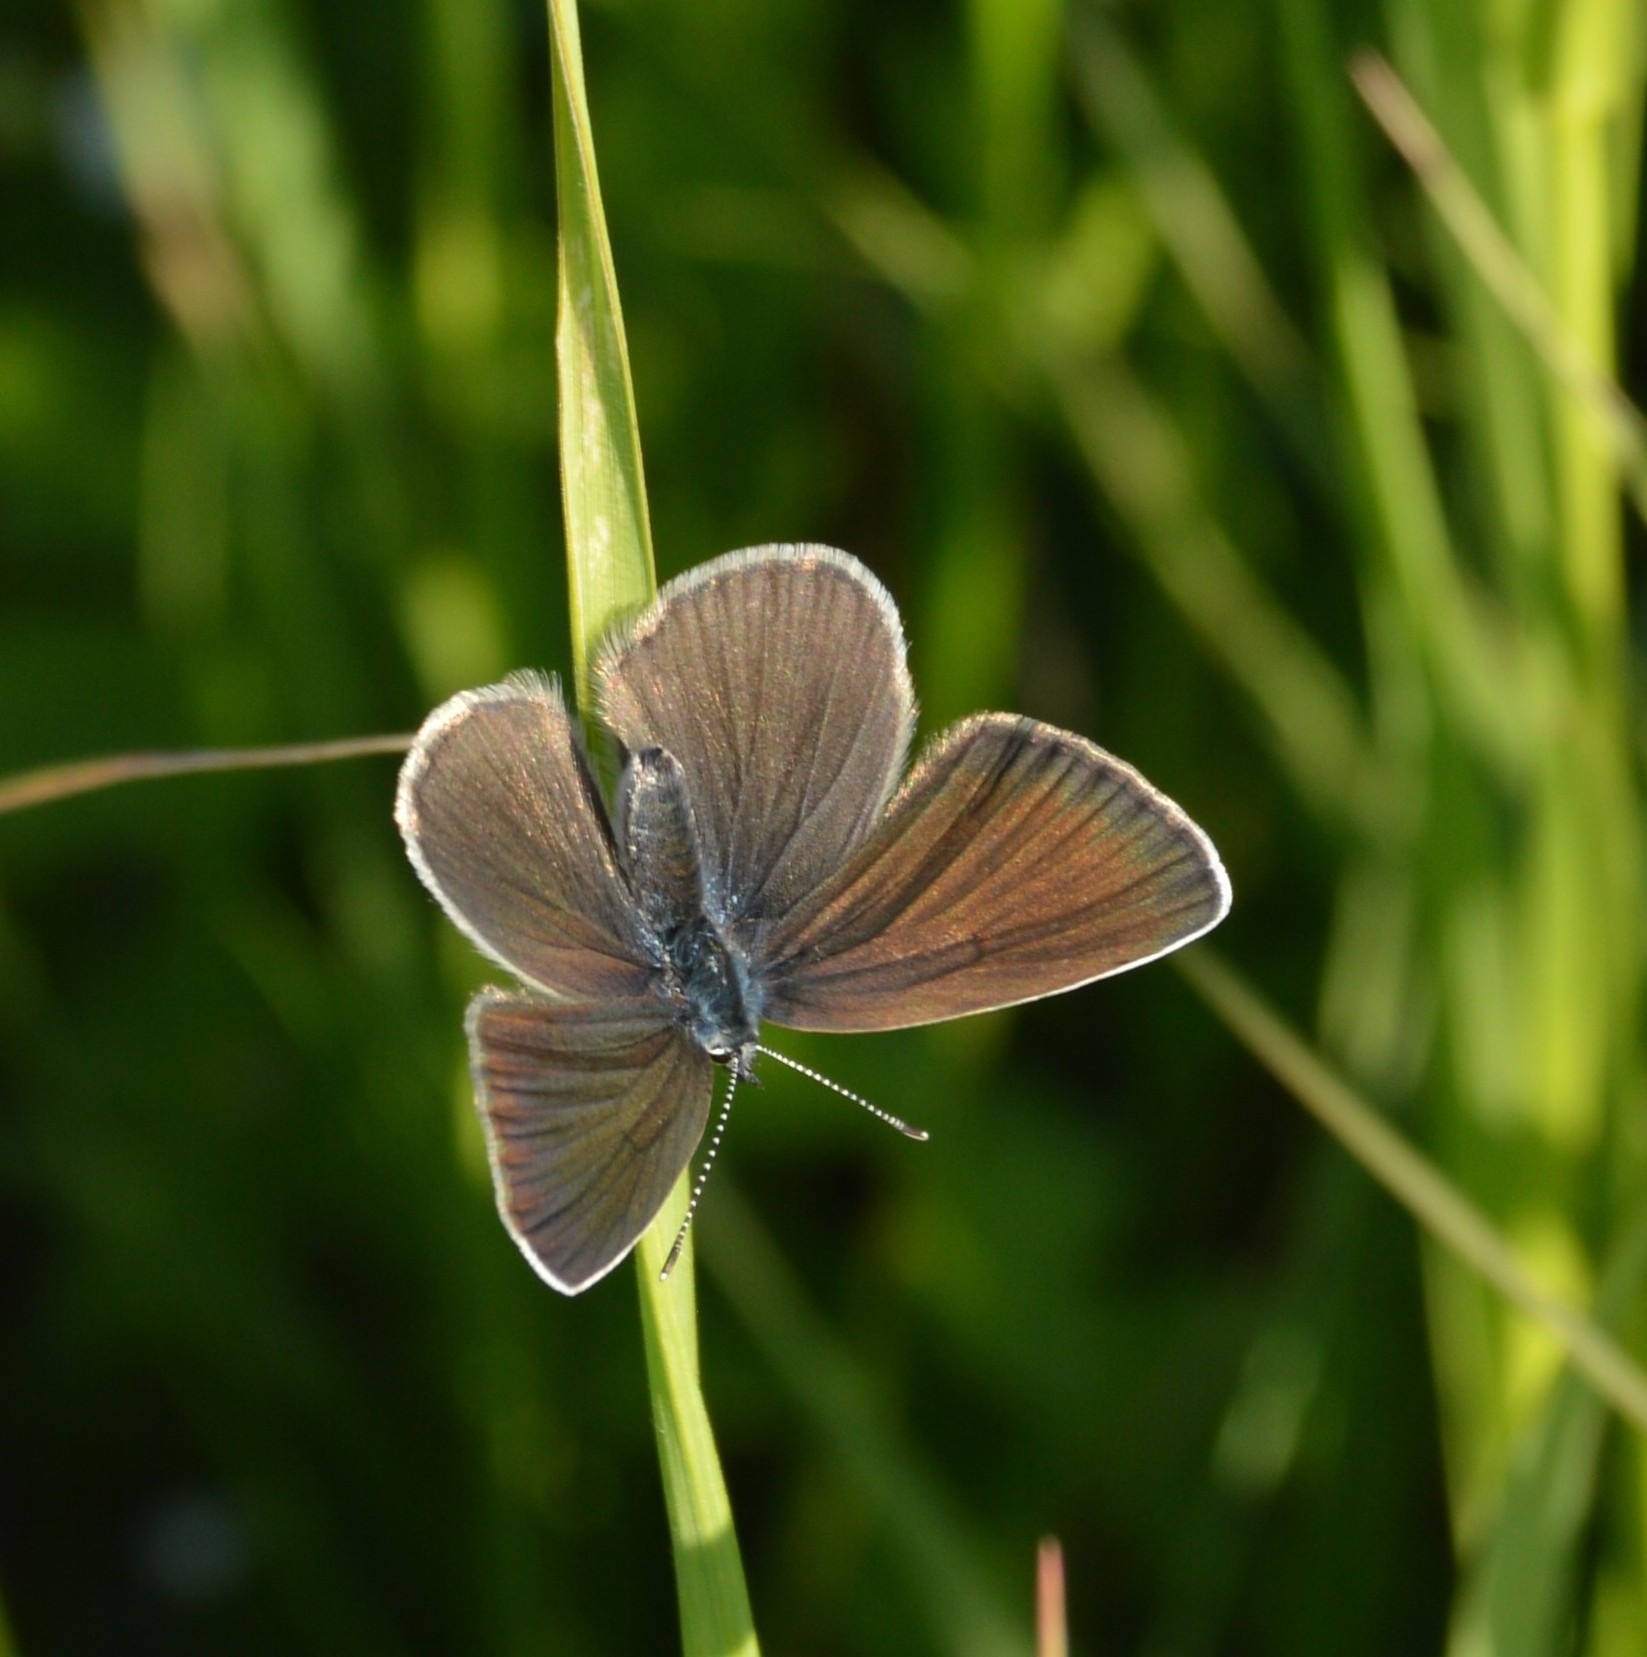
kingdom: Animalia
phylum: Arthropoda
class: Insecta
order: Lepidoptera
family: Lycaenidae
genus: Cyaniris
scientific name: Cyaniris semiargus
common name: Mazarine blue
